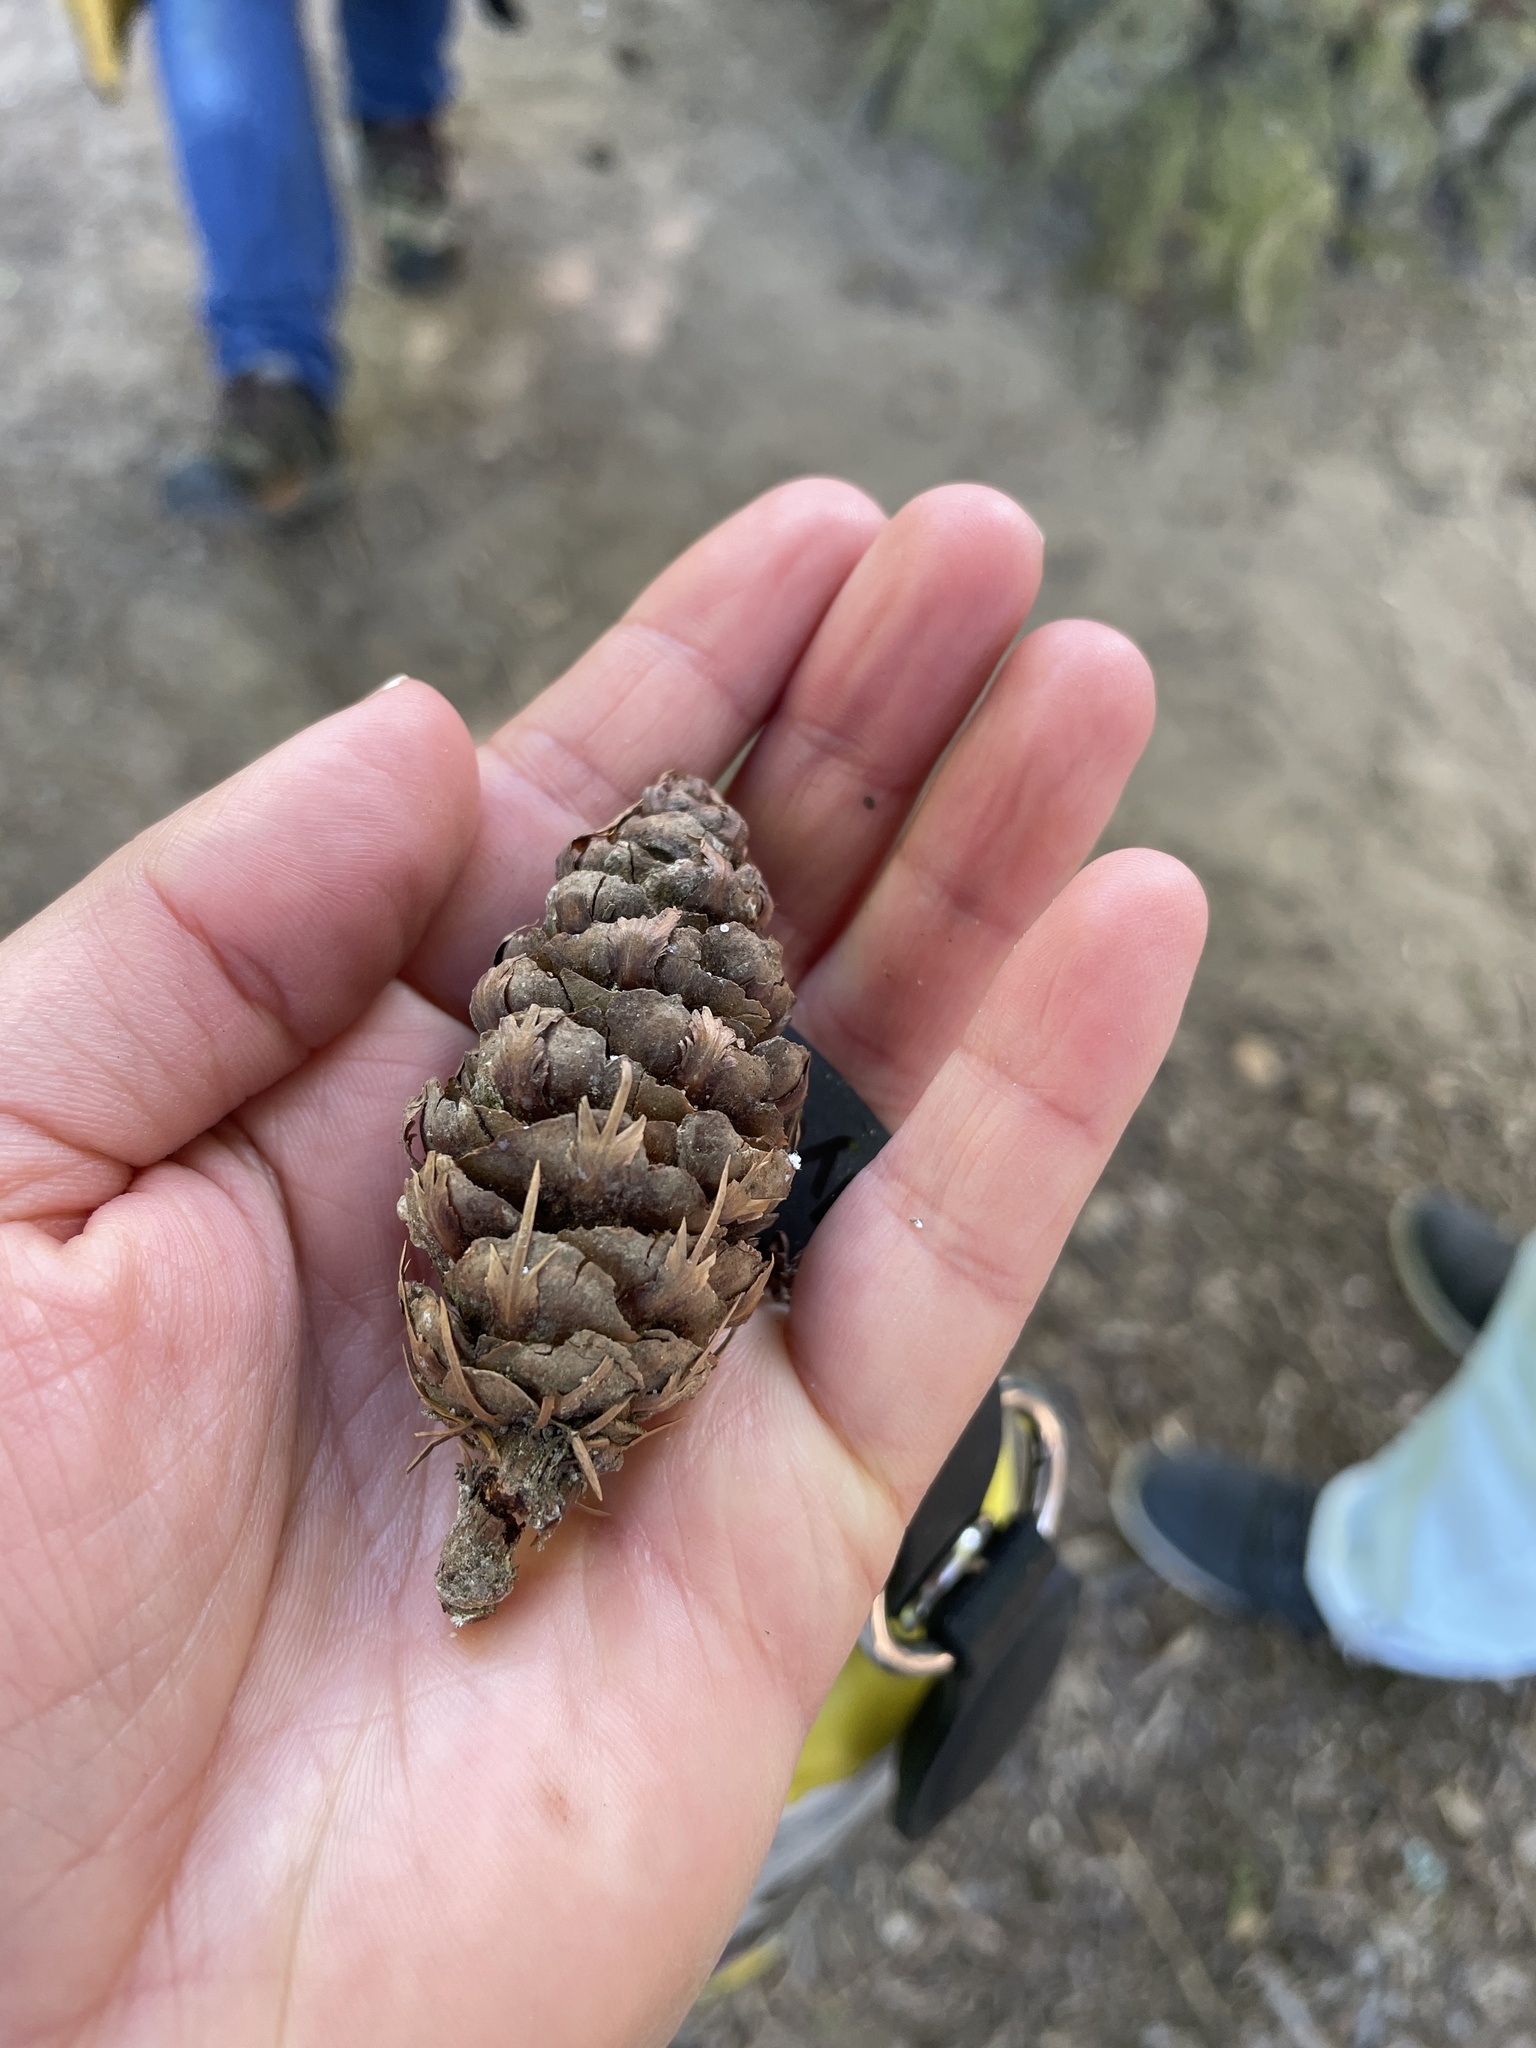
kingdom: Plantae
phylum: Tracheophyta
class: Pinopsida
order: Pinales
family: Pinaceae
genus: Pseudotsuga
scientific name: Pseudotsuga menziesii
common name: Douglas fir
